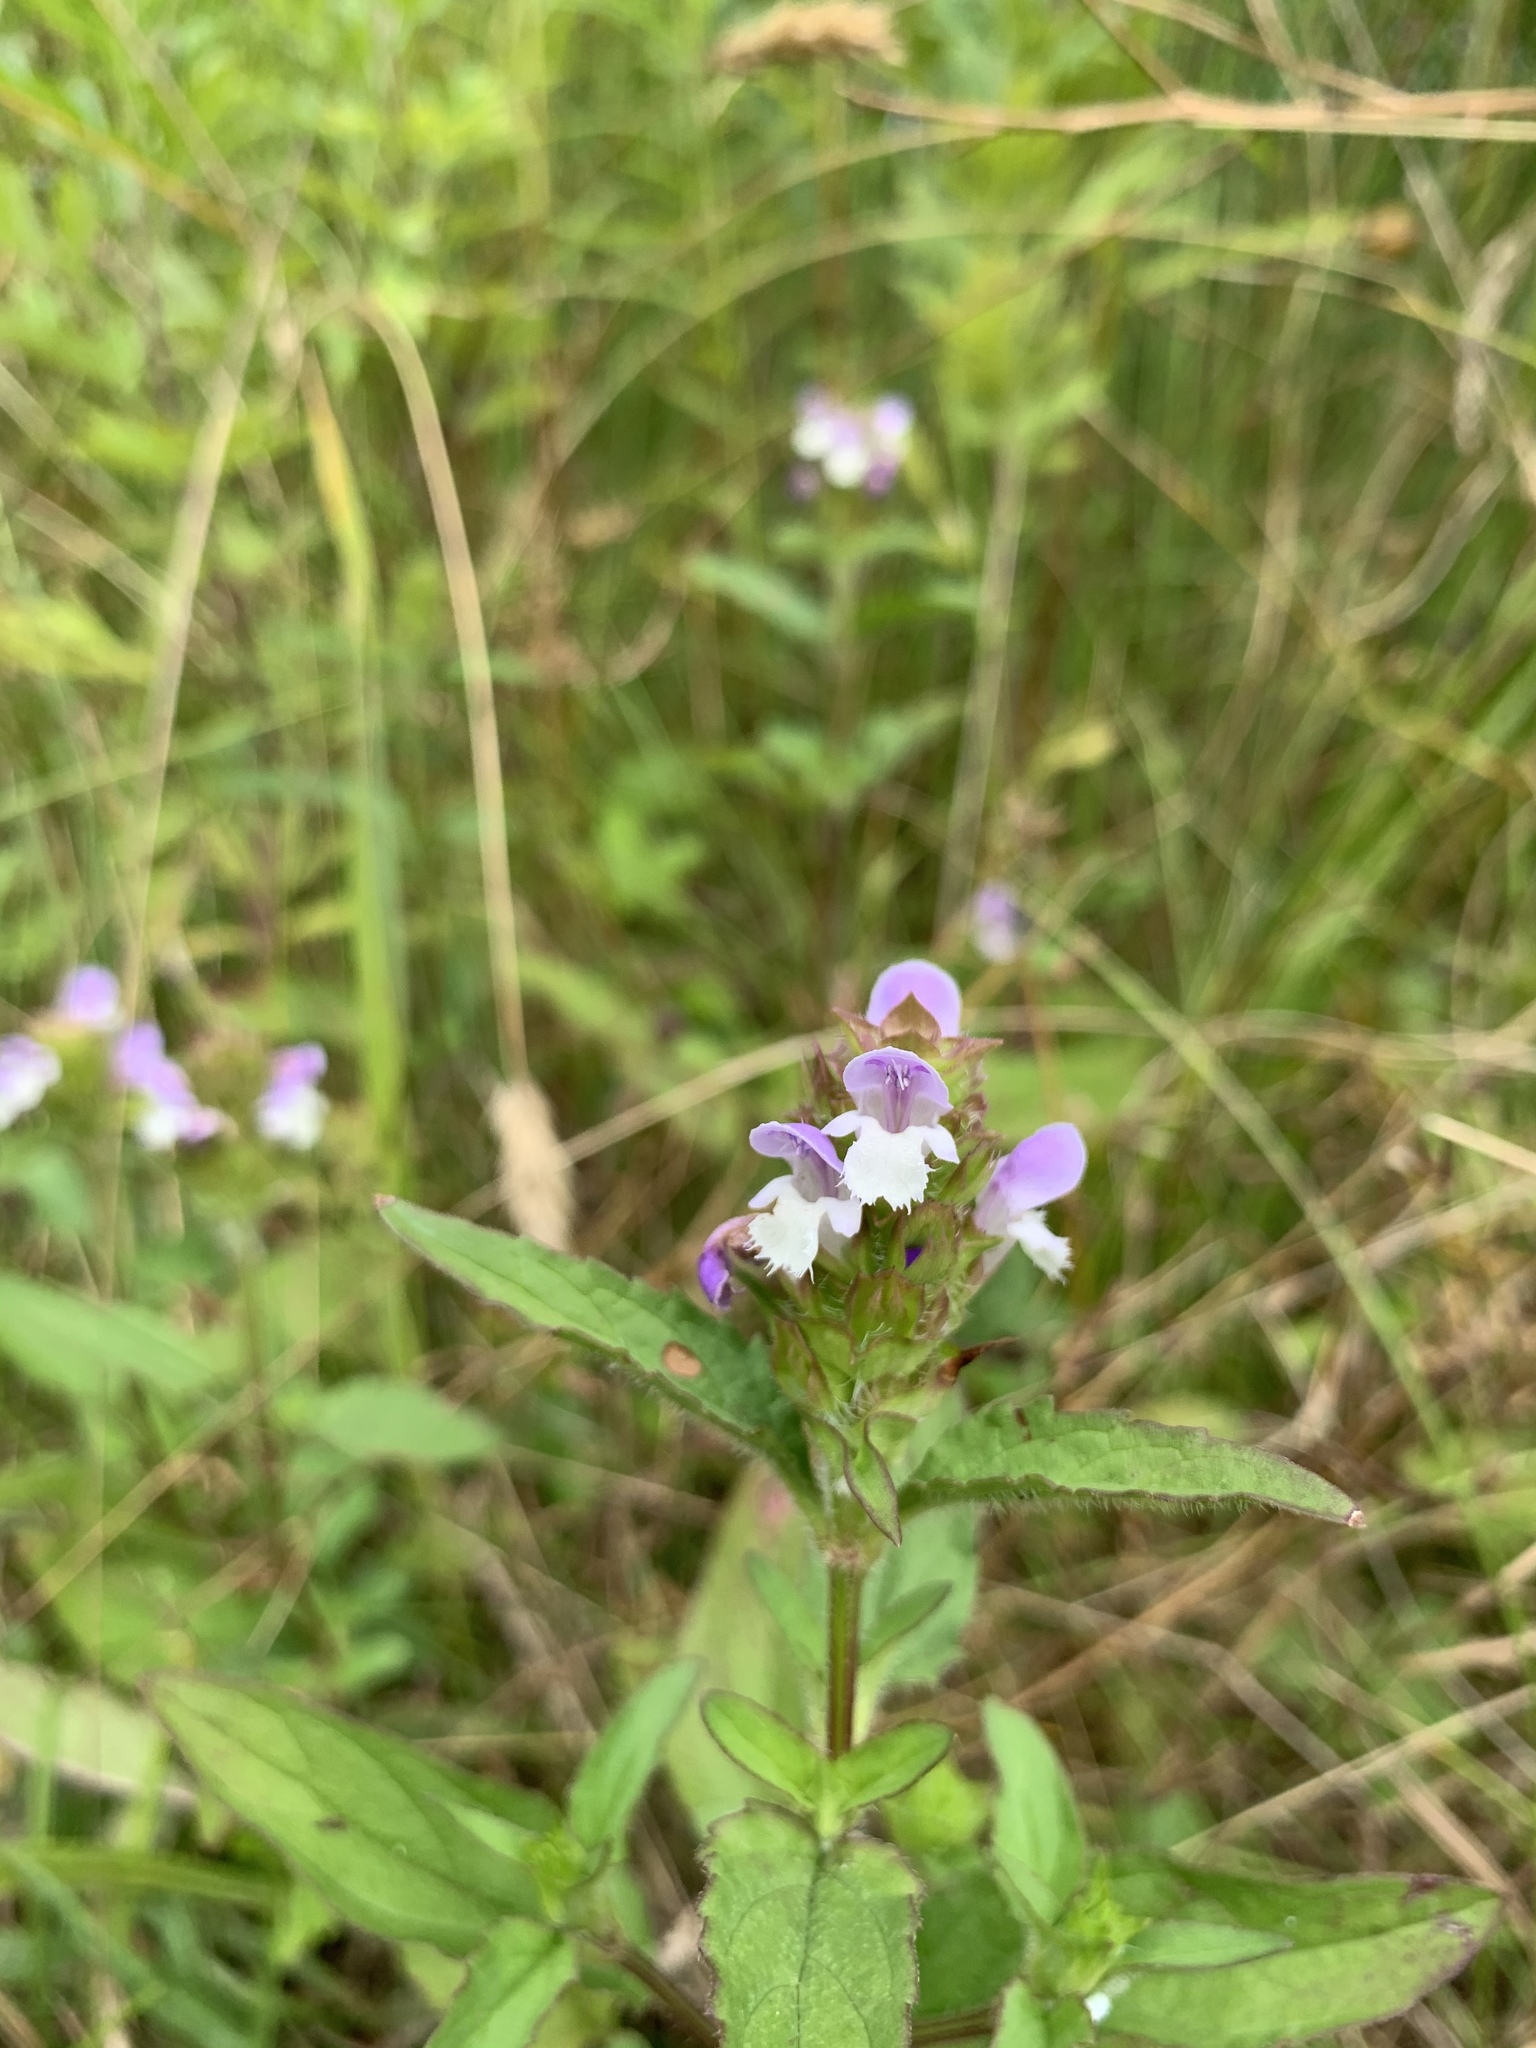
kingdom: Plantae
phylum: Tracheophyta
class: Magnoliopsida
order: Lamiales
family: Lamiaceae
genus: Prunella
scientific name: Prunella vulgaris
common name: Heal-all
